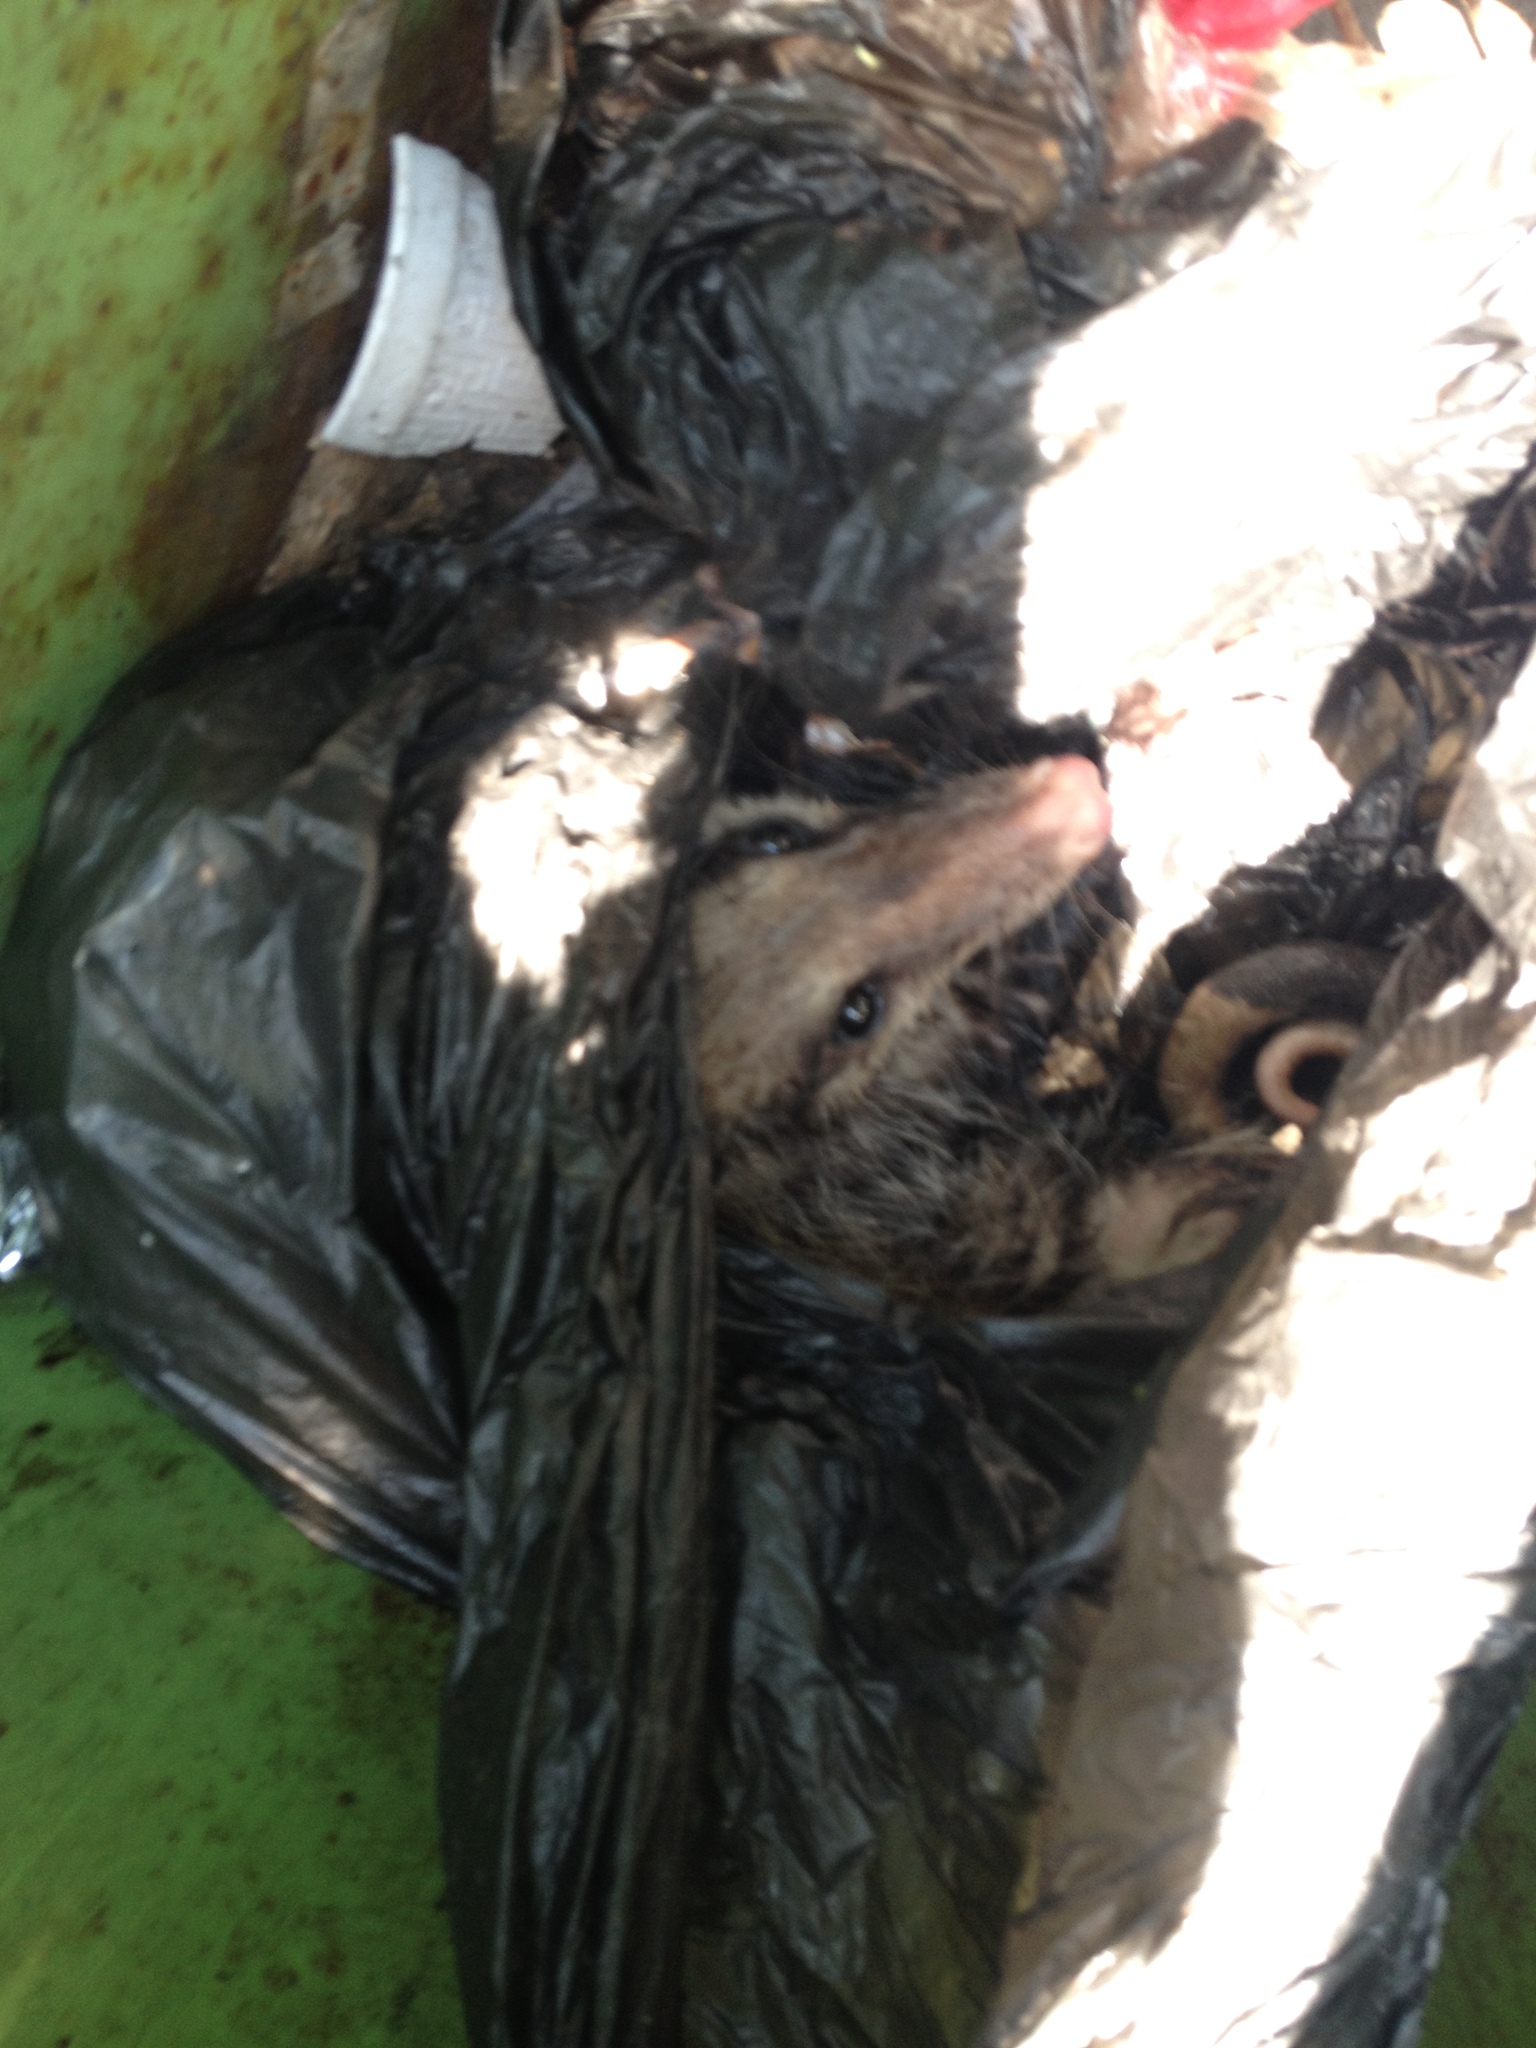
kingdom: Animalia
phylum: Chordata
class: Mammalia
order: Didelphimorphia
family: Didelphidae
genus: Didelphis
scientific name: Didelphis virginiana
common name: Virginia opossum
